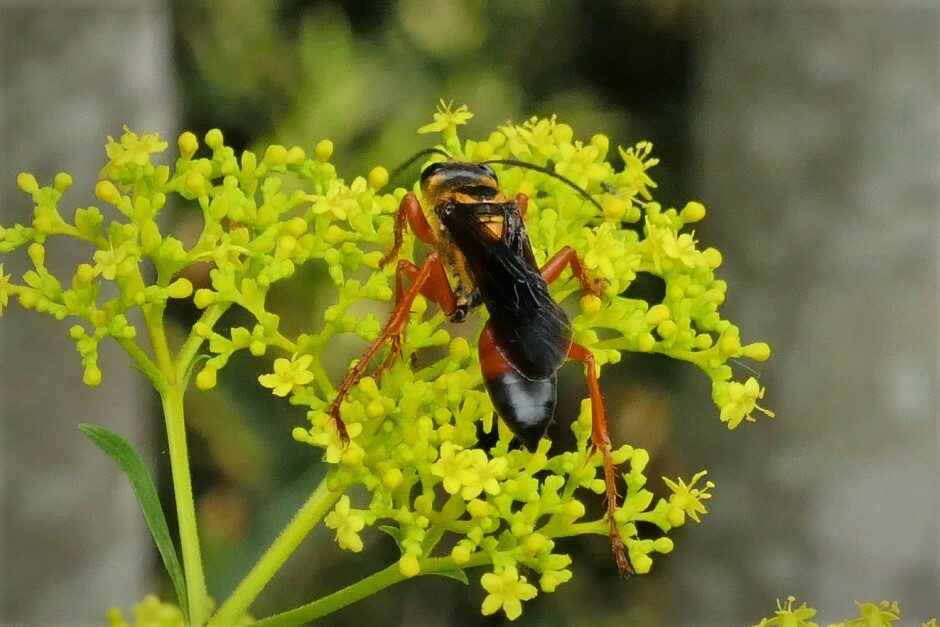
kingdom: Animalia
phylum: Arthropoda
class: Insecta
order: Hymenoptera
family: Sphecidae
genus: Sphex
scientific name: Sphex ichneumoneus
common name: Great golden digger wasp
